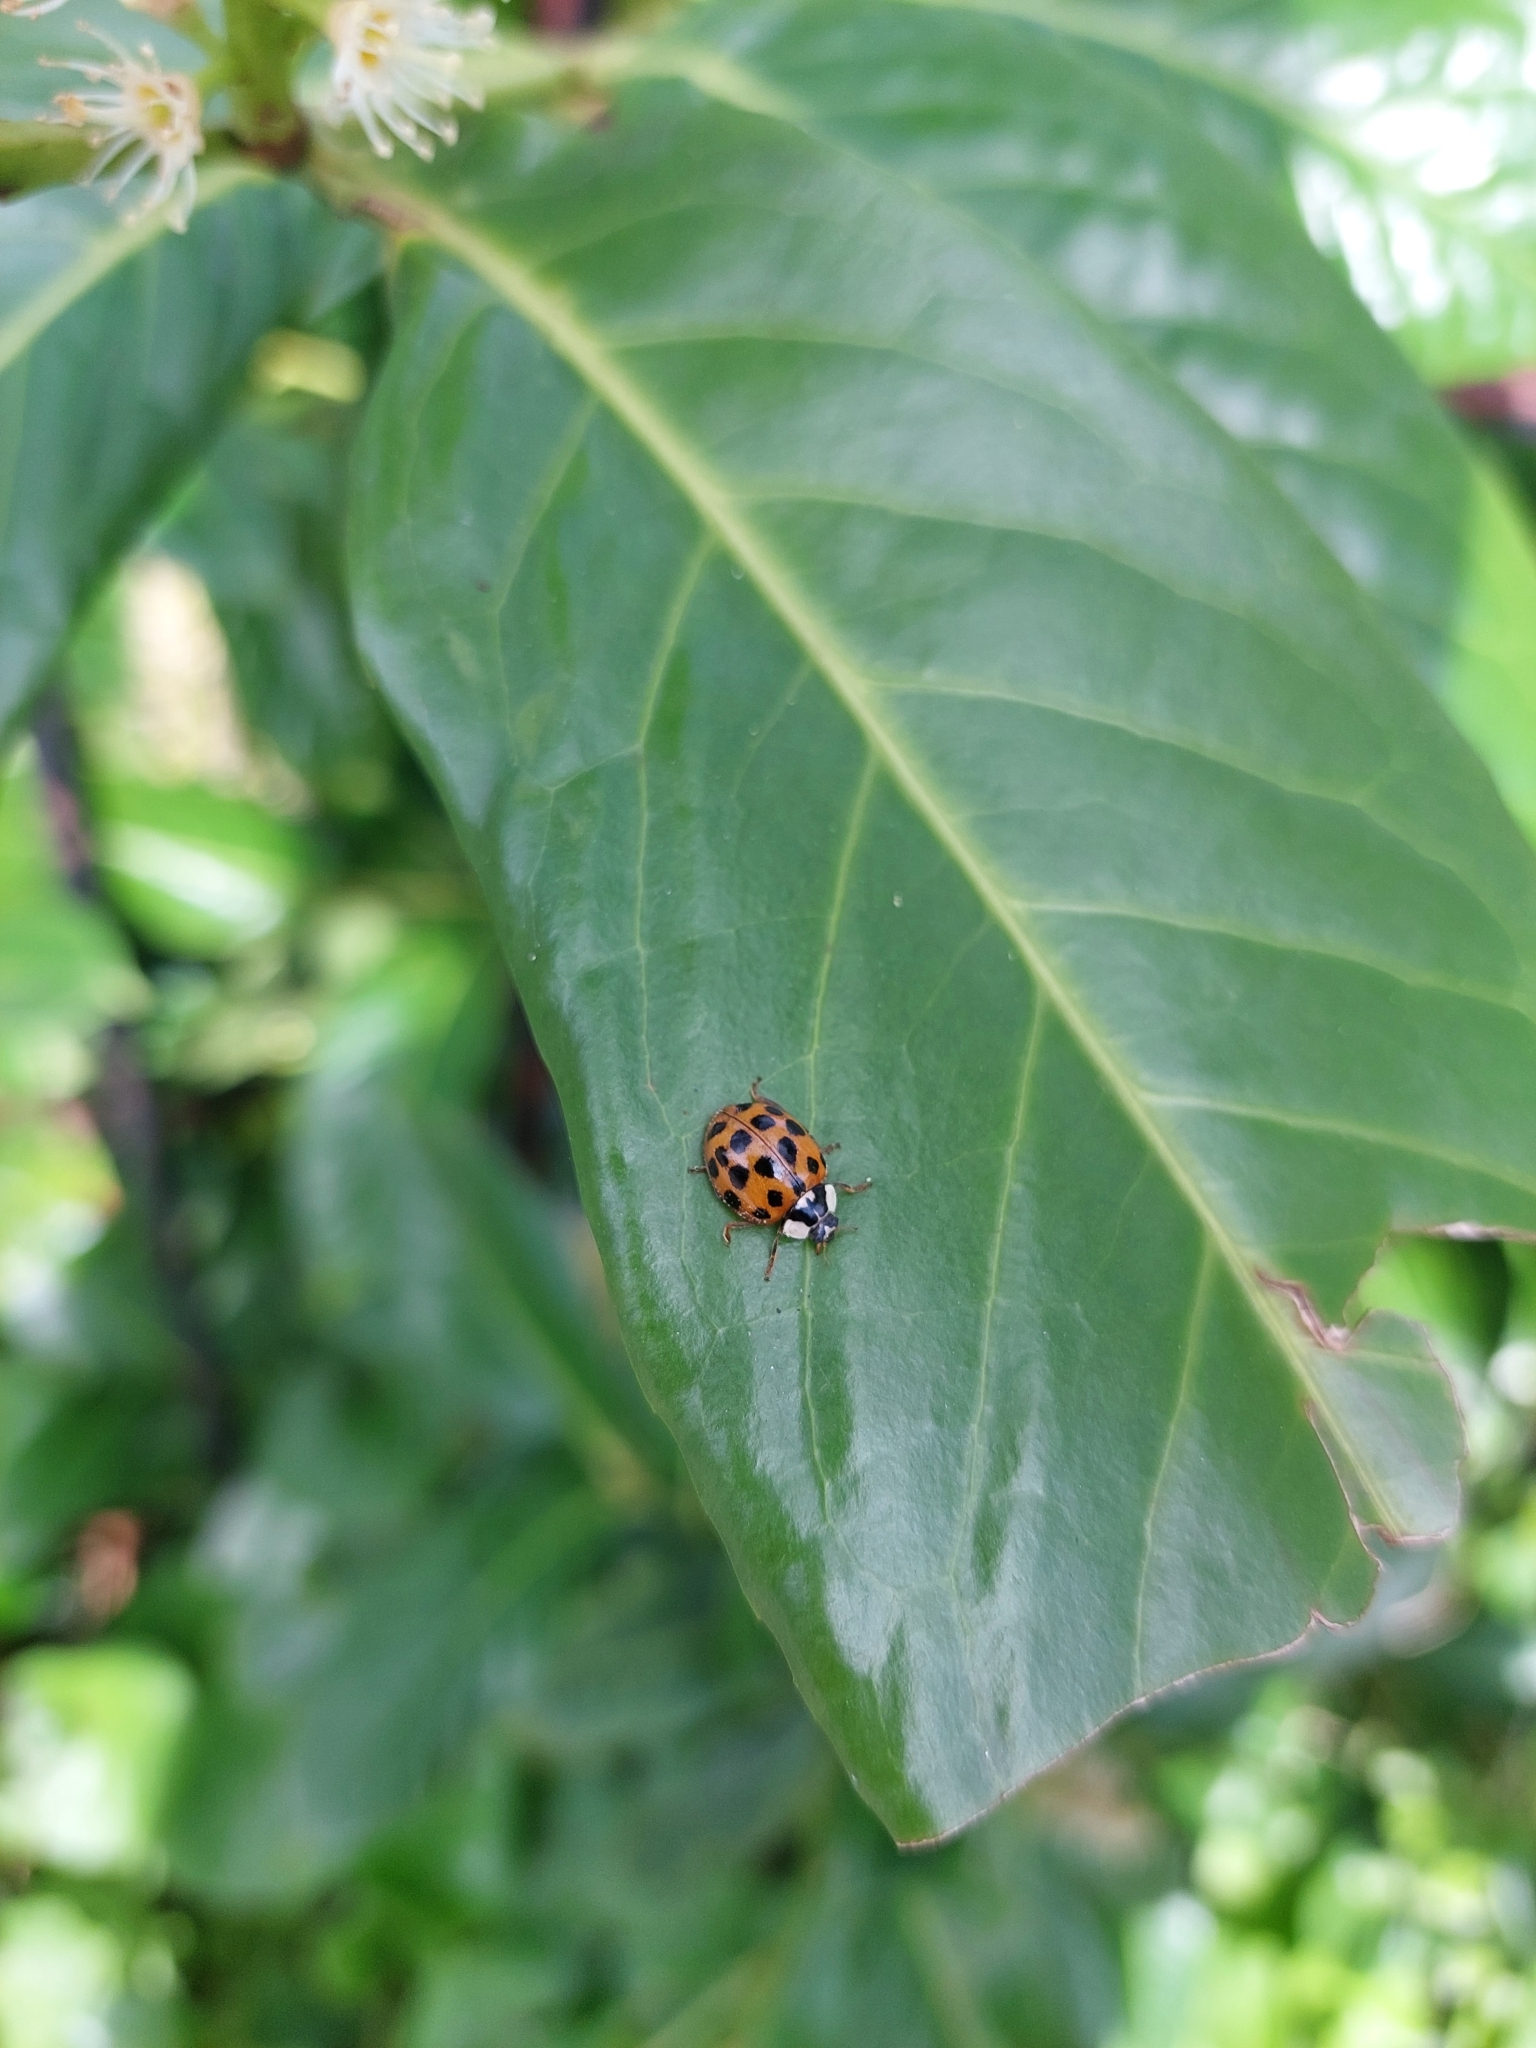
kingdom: Animalia
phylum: Arthropoda
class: Insecta
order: Coleoptera
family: Coccinellidae
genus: Harmonia
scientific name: Harmonia axyridis
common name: Harlequin ladybird
